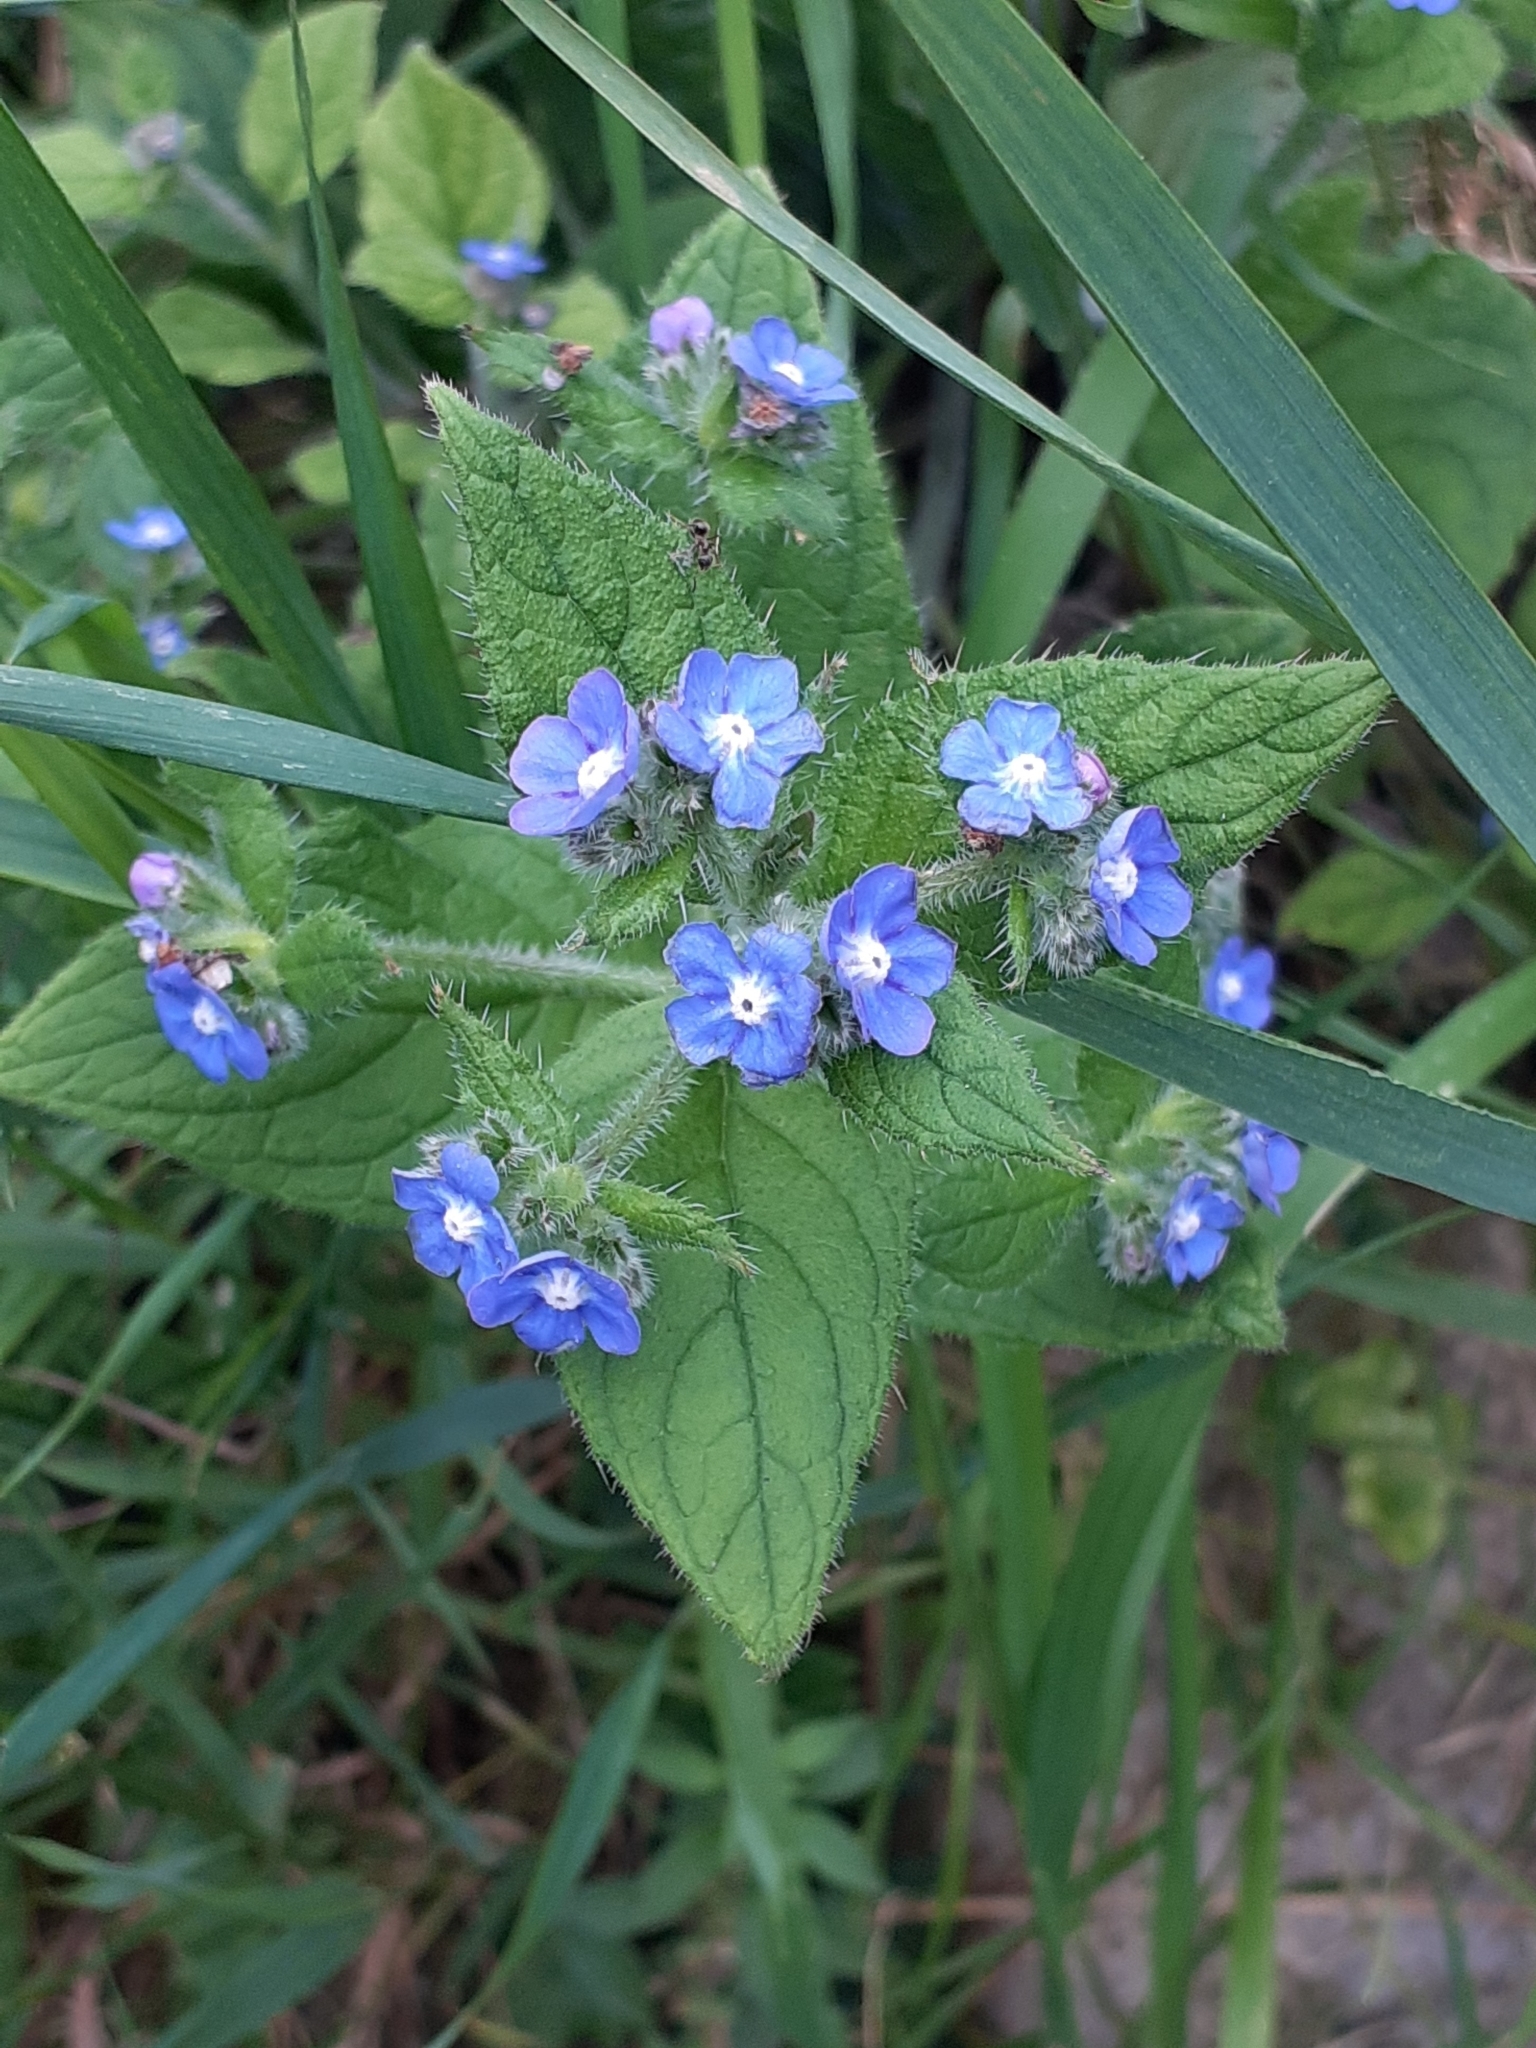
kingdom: Plantae
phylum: Tracheophyta
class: Magnoliopsida
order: Boraginales
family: Boraginaceae
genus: Pentaglottis
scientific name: Pentaglottis sempervirens
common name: Green alkanet
